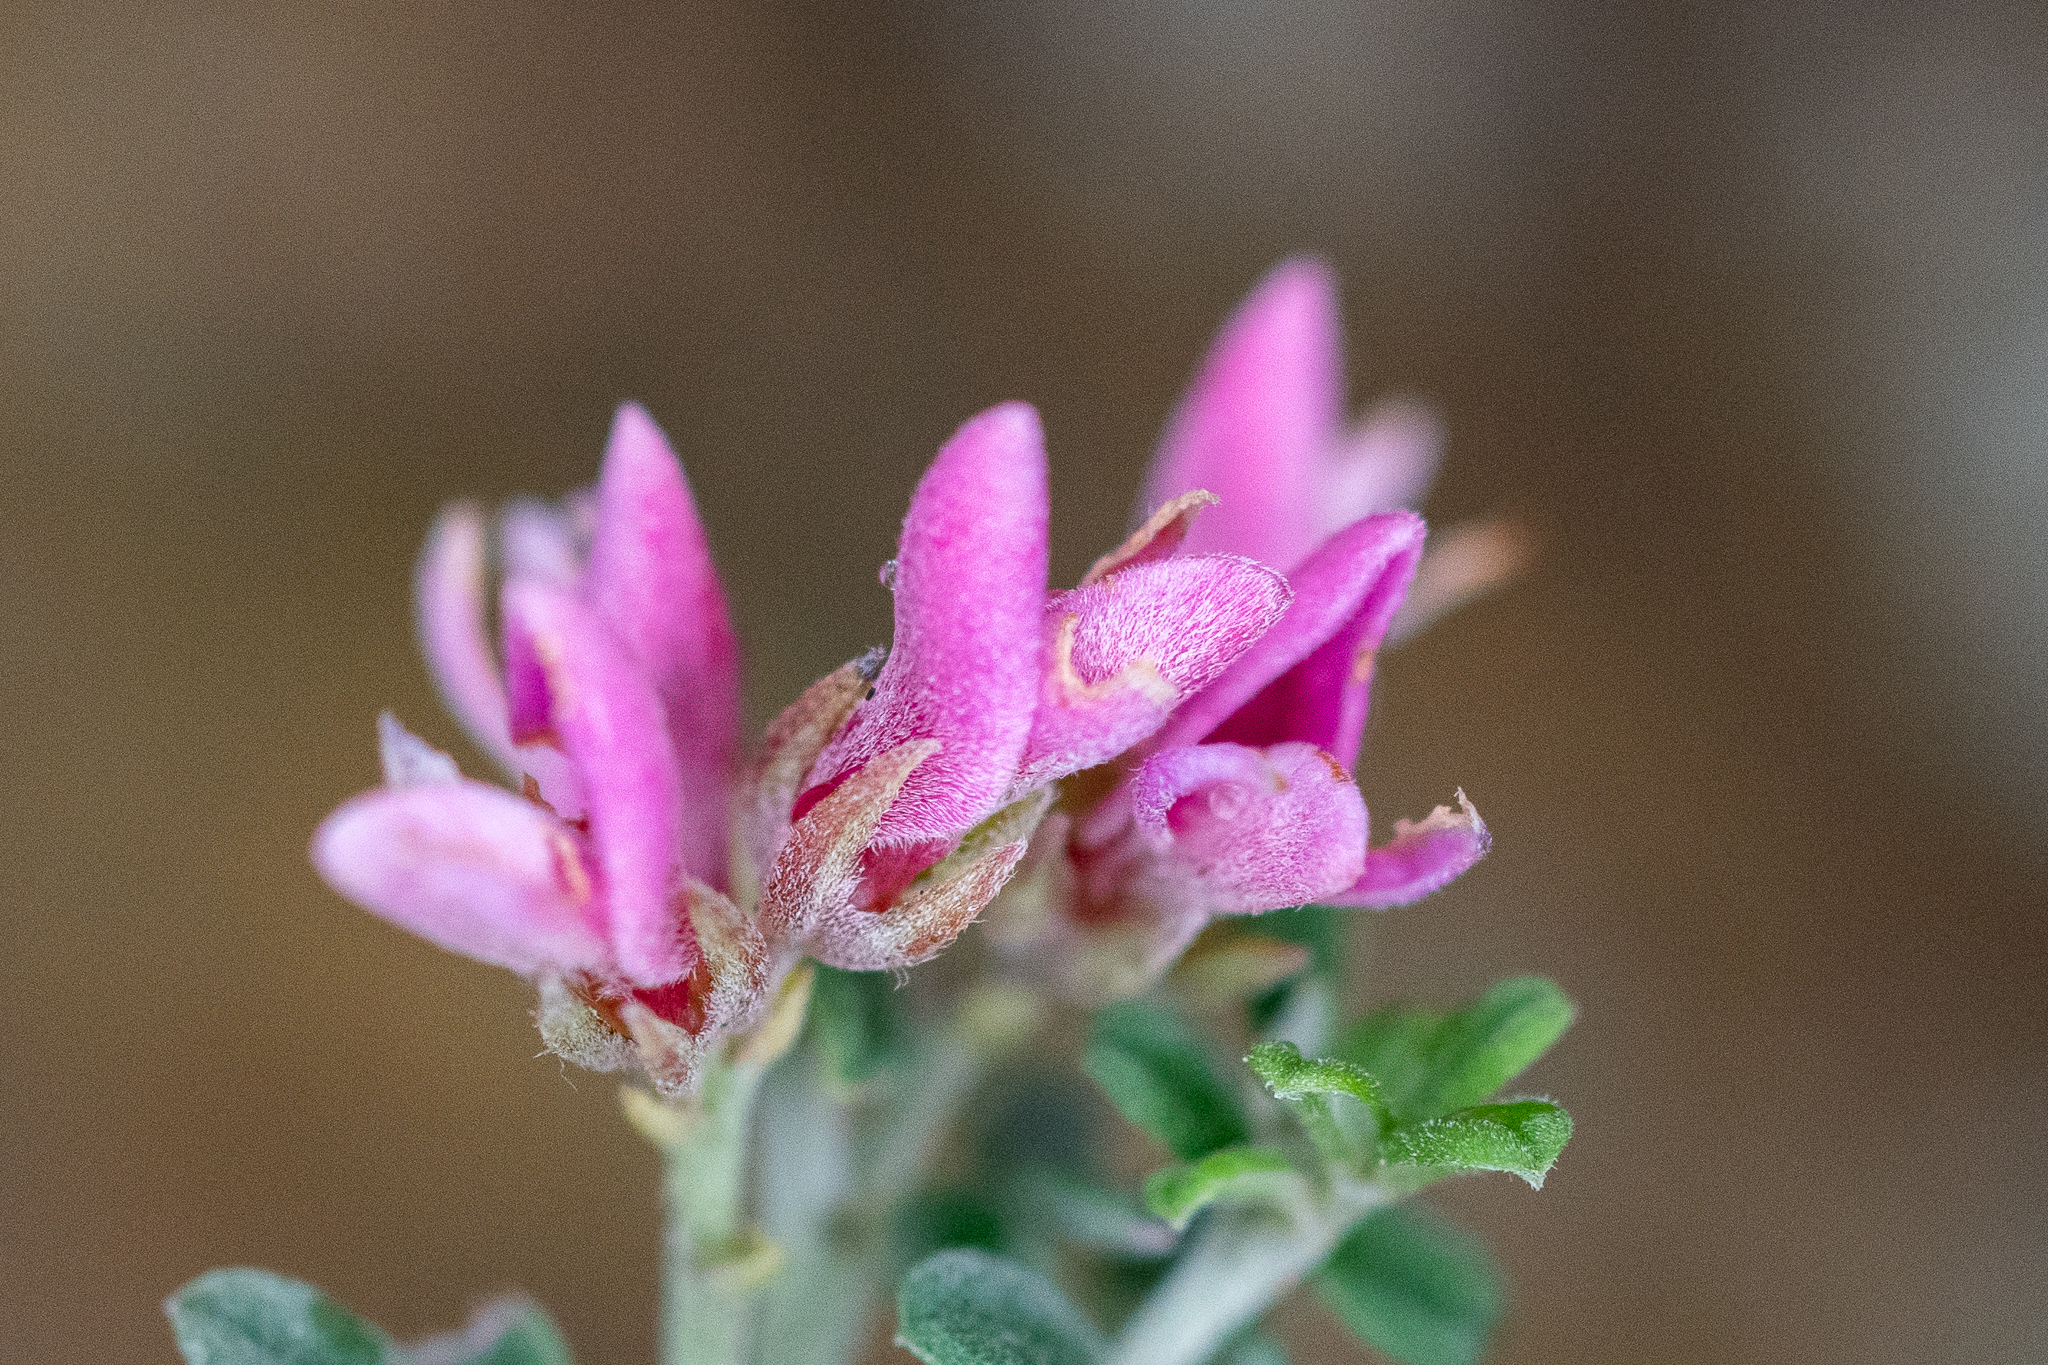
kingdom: Plantae
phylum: Tracheophyta
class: Magnoliopsida
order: Fabales
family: Fabaceae
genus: Indigofera
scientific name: Indigofera brachystachya
